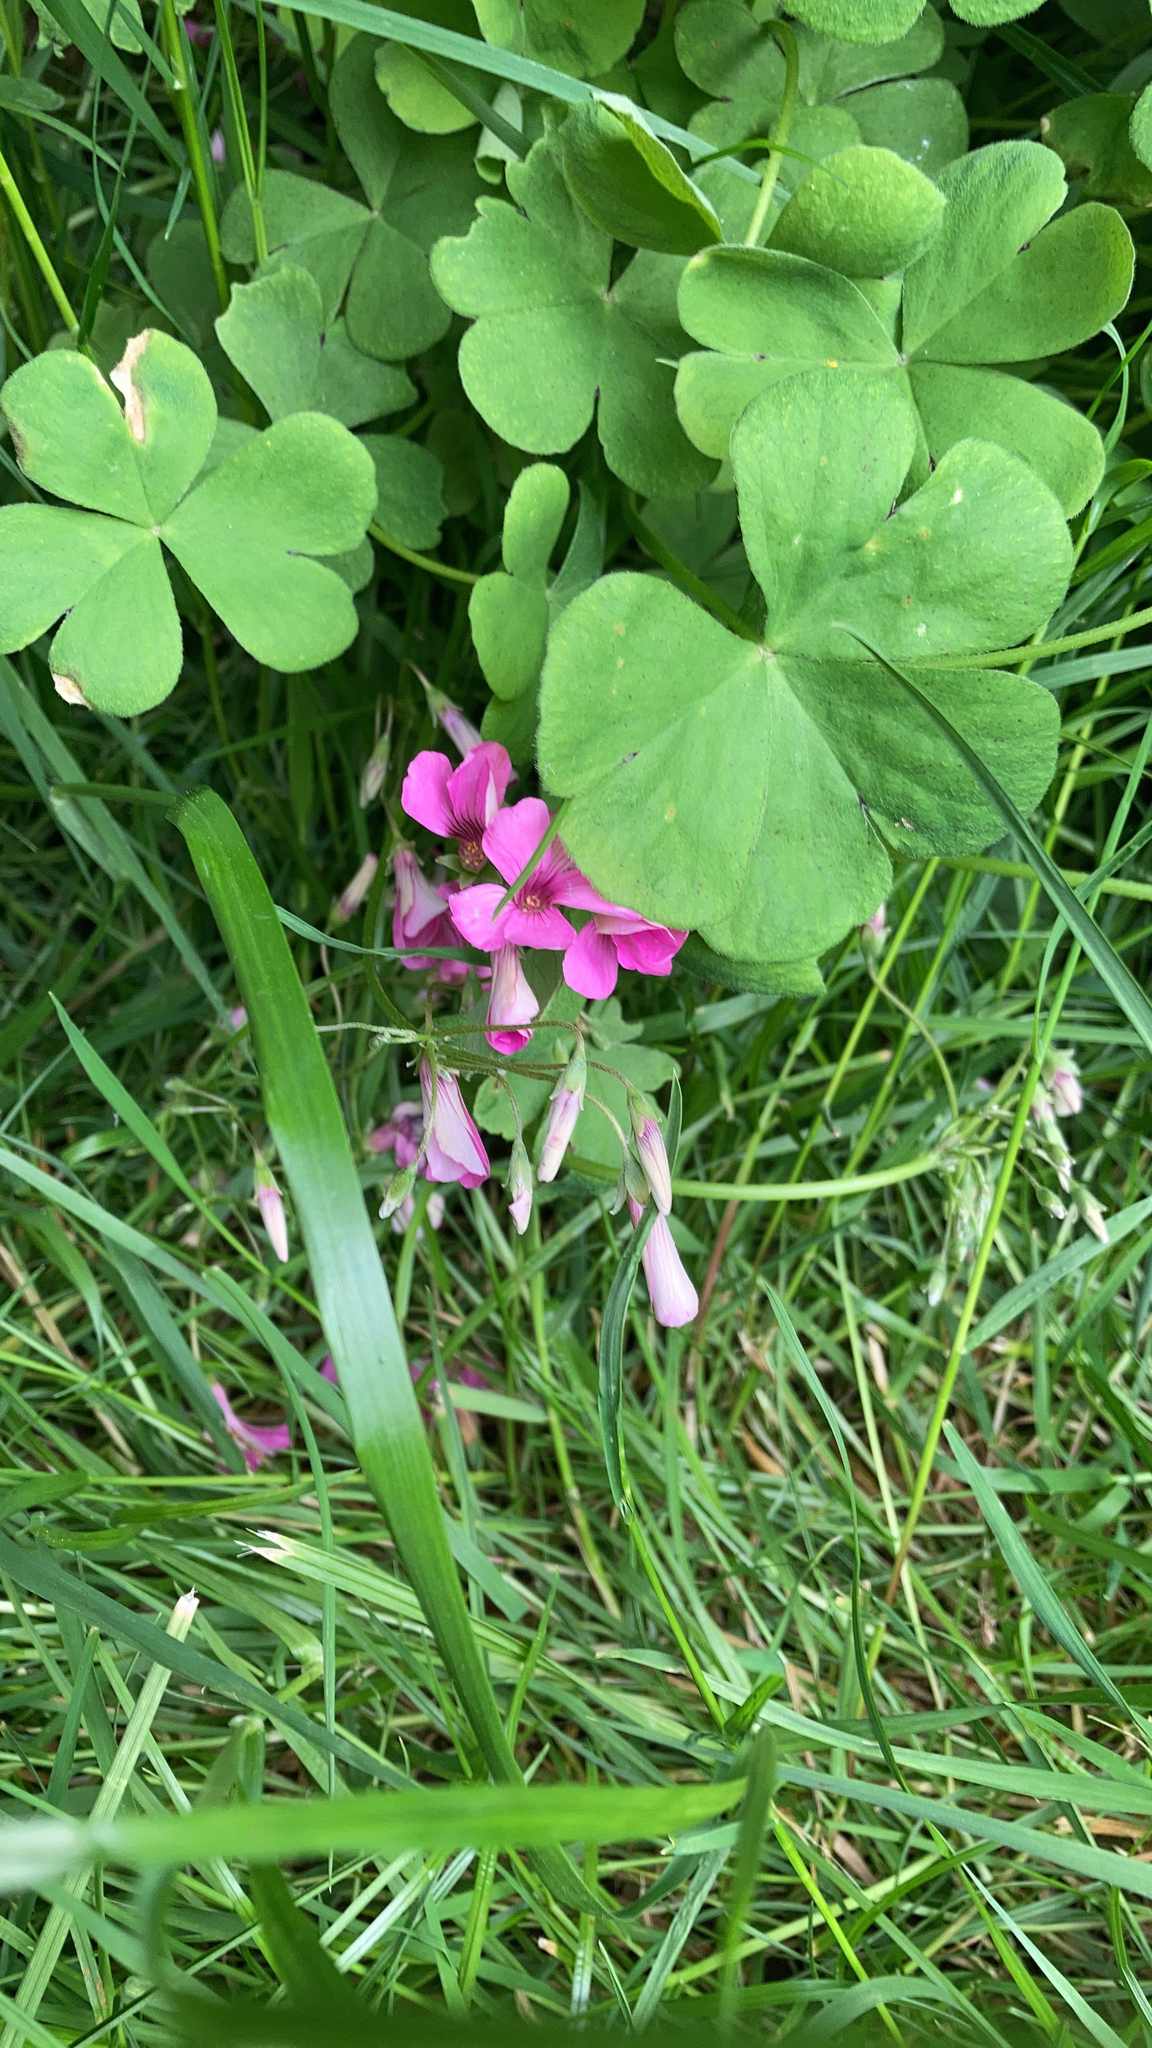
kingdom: Plantae
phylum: Tracheophyta
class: Magnoliopsida
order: Oxalidales
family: Oxalidaceae
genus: Oxalis
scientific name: Oxalis articulata
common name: Pink-sorrel
